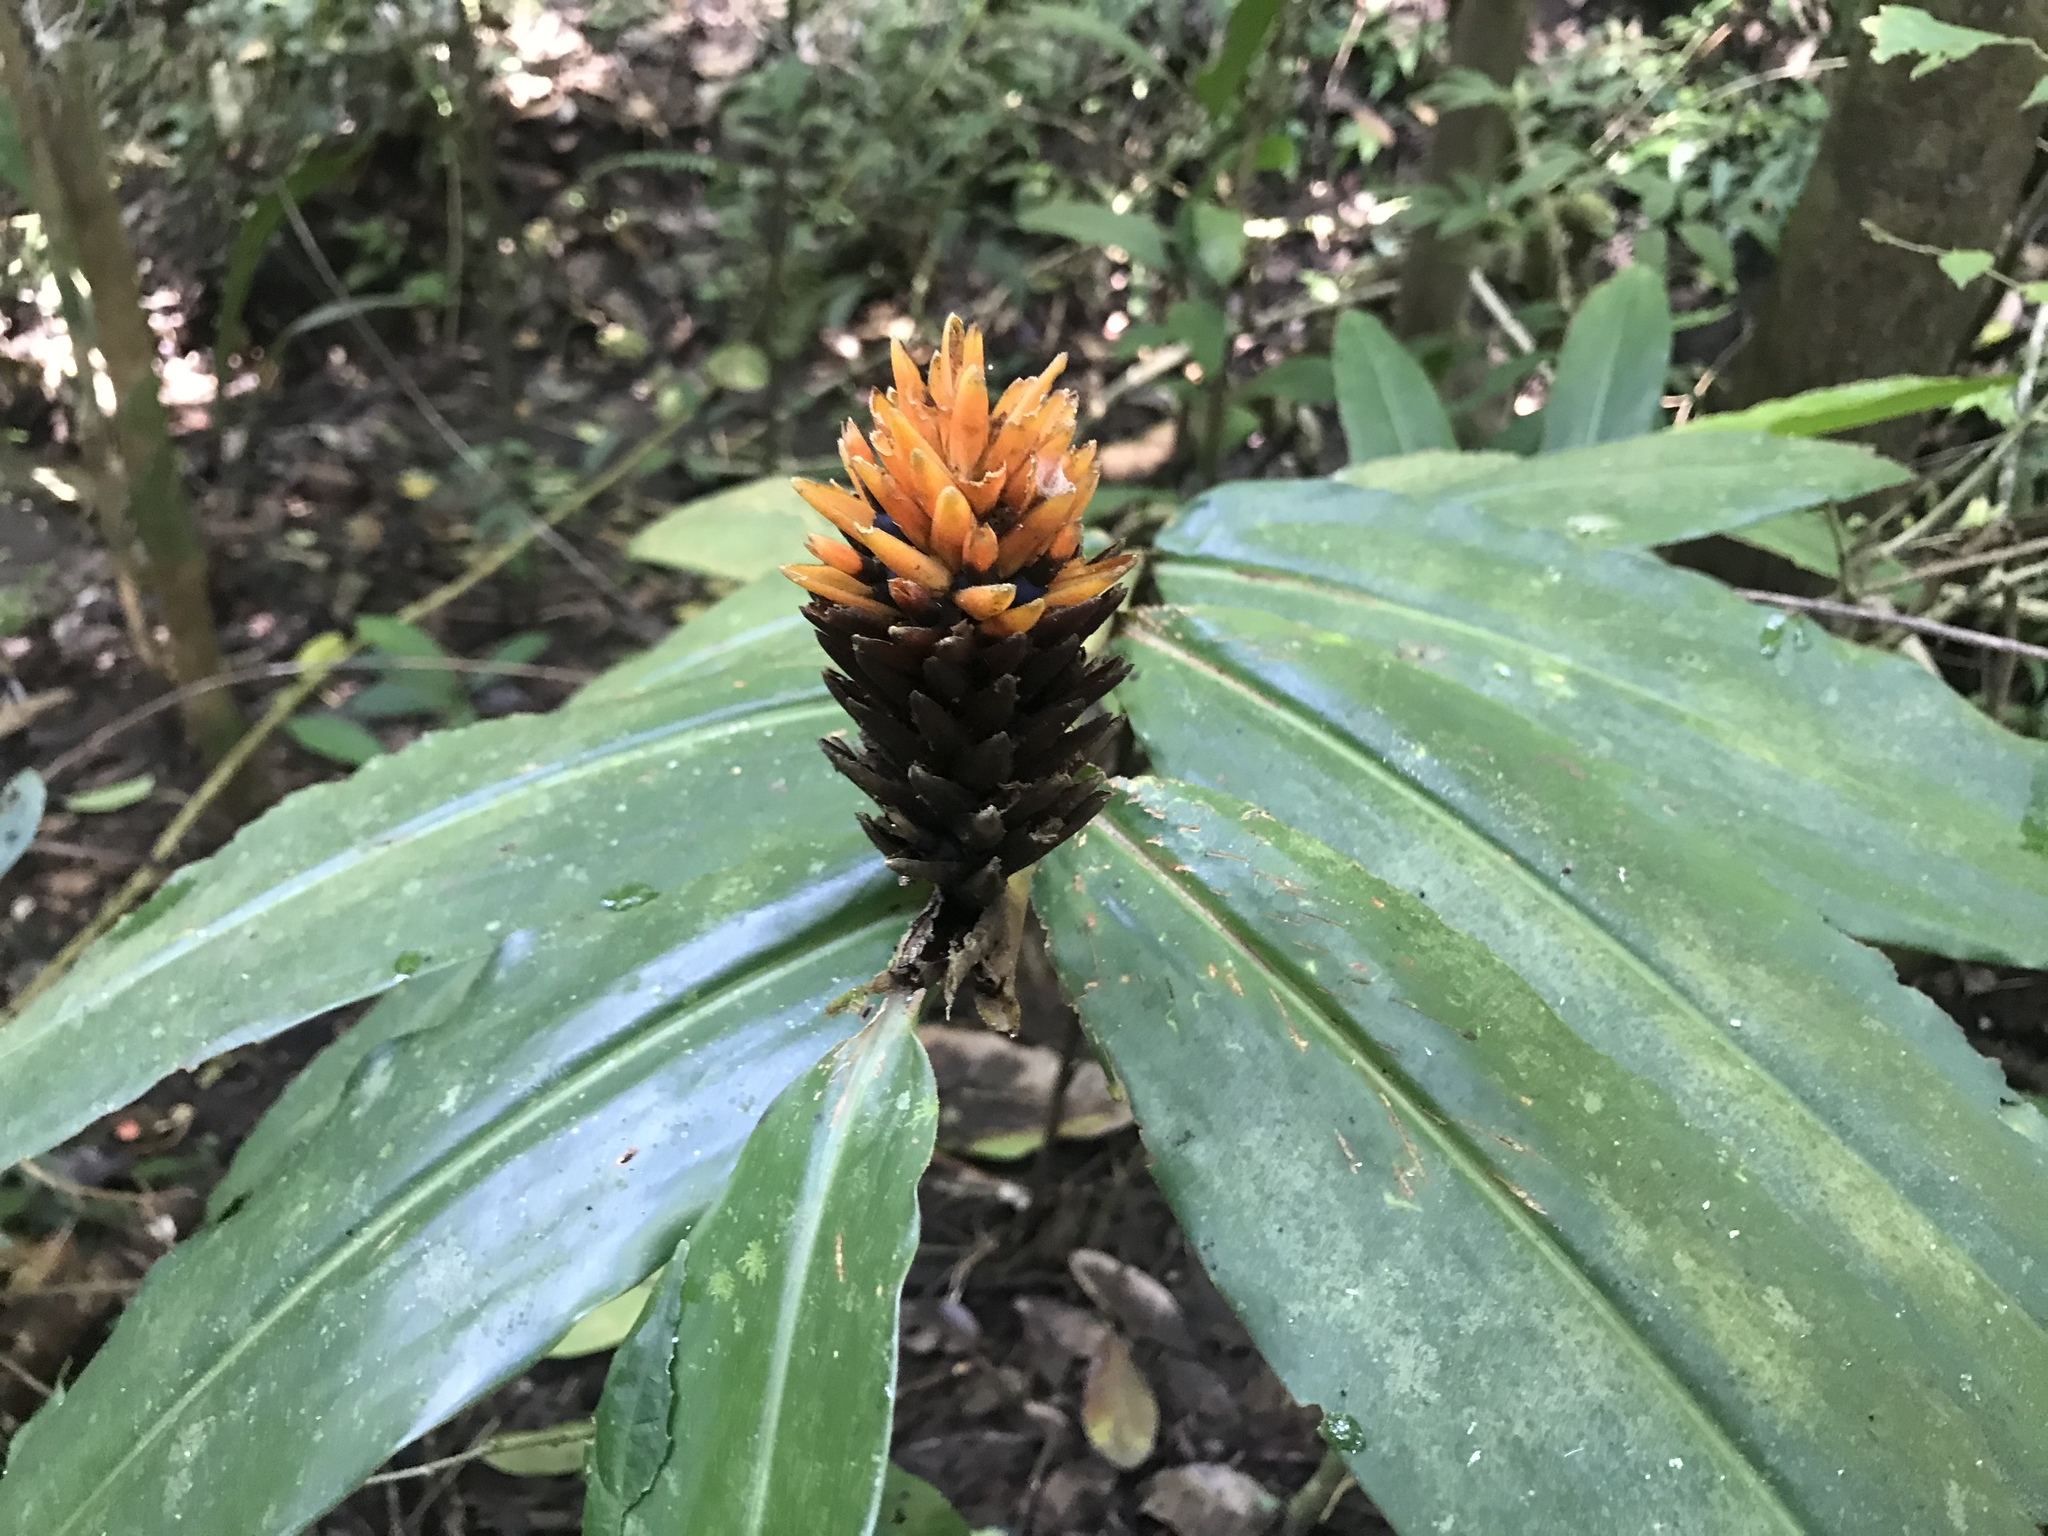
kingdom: Plantae
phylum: Tracheophyta
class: Liliopsida
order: Zingiberales
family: Zingiberaceae
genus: Renealmia
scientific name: Renealmia cernua
